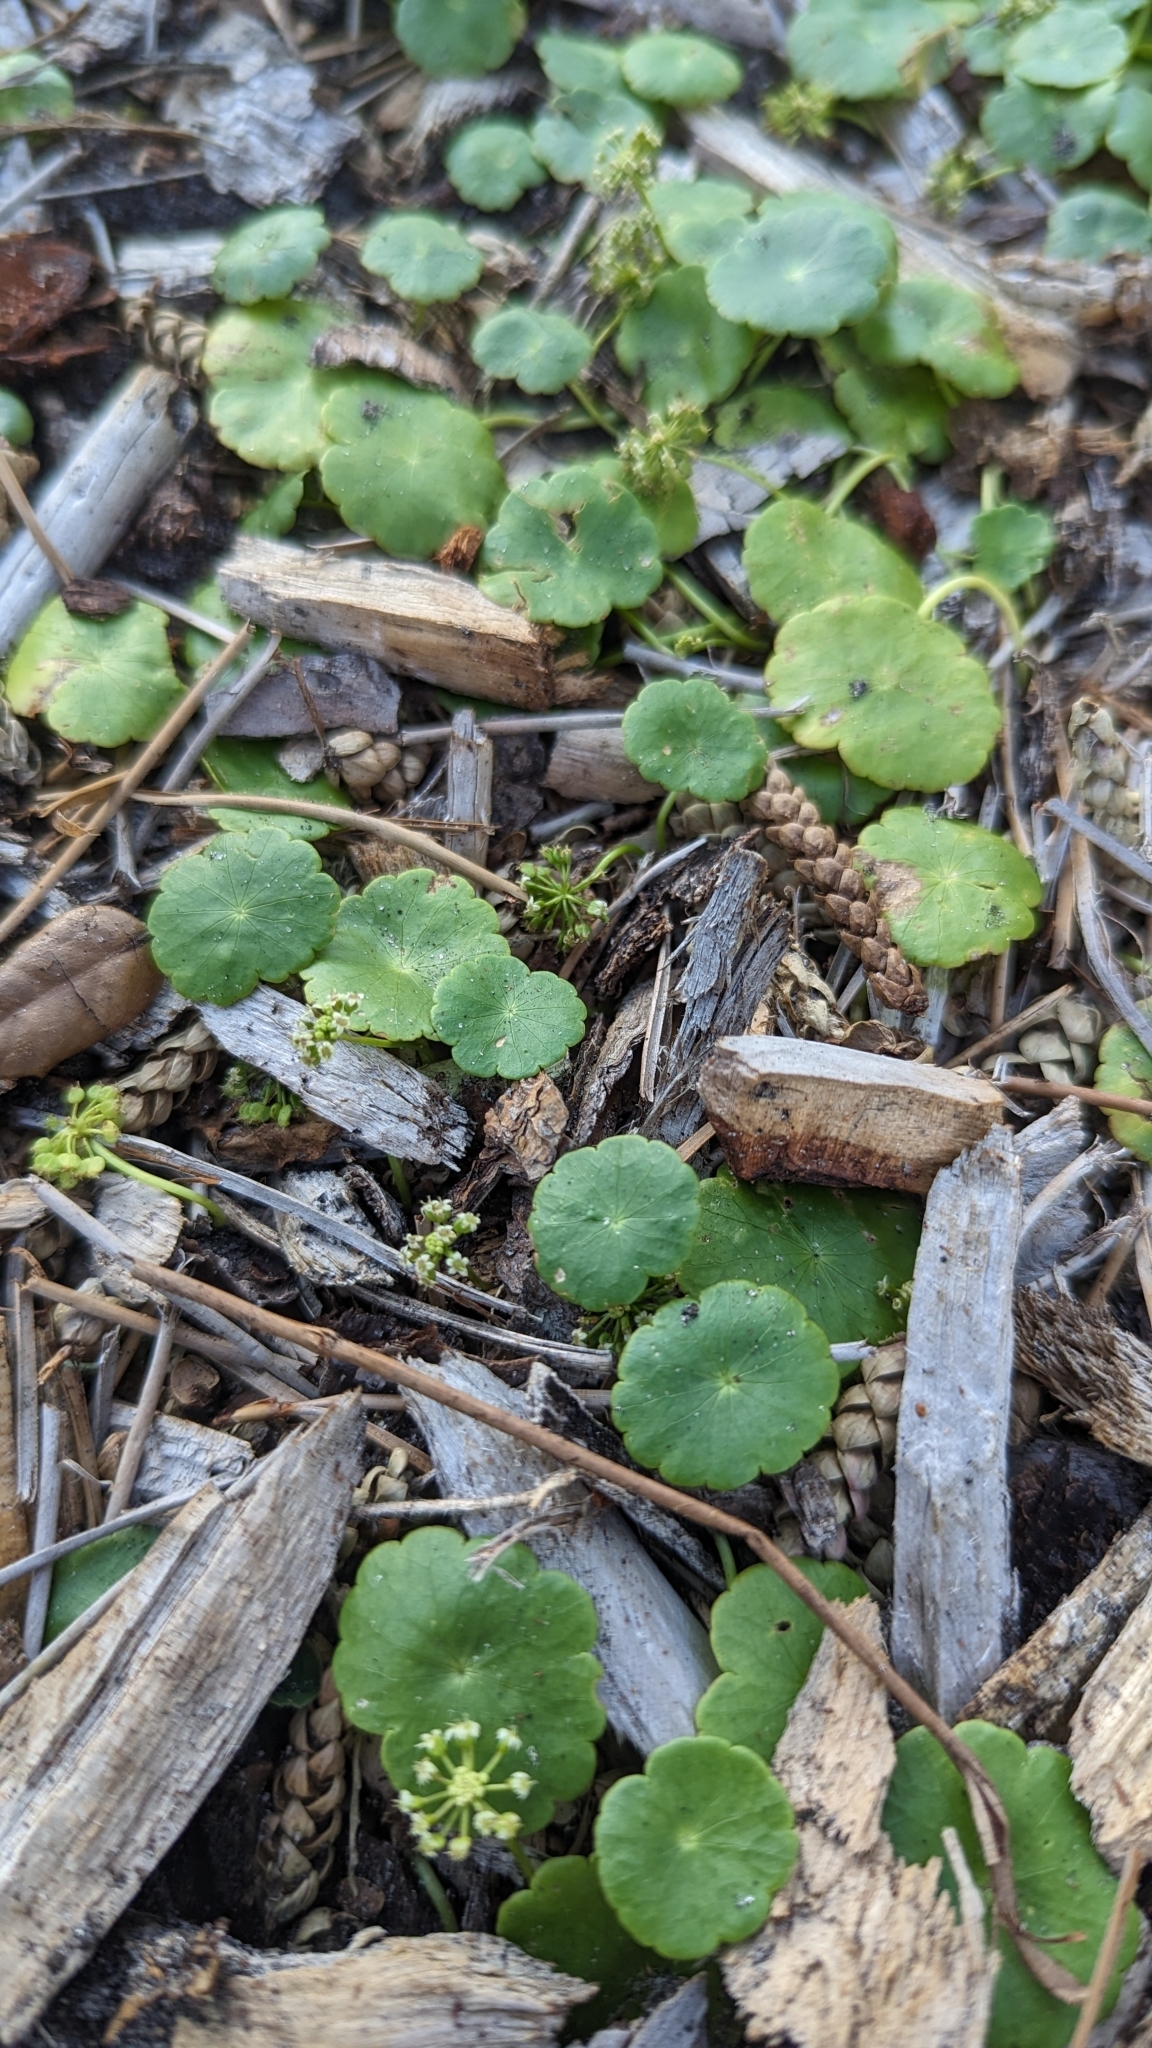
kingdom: Plantae
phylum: Tracheophyta
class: Magnoliopsida
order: Apiales
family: Araliaceae
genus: Hydrocotyle
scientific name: Hydrocotyle umbellata
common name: Water pennywort
